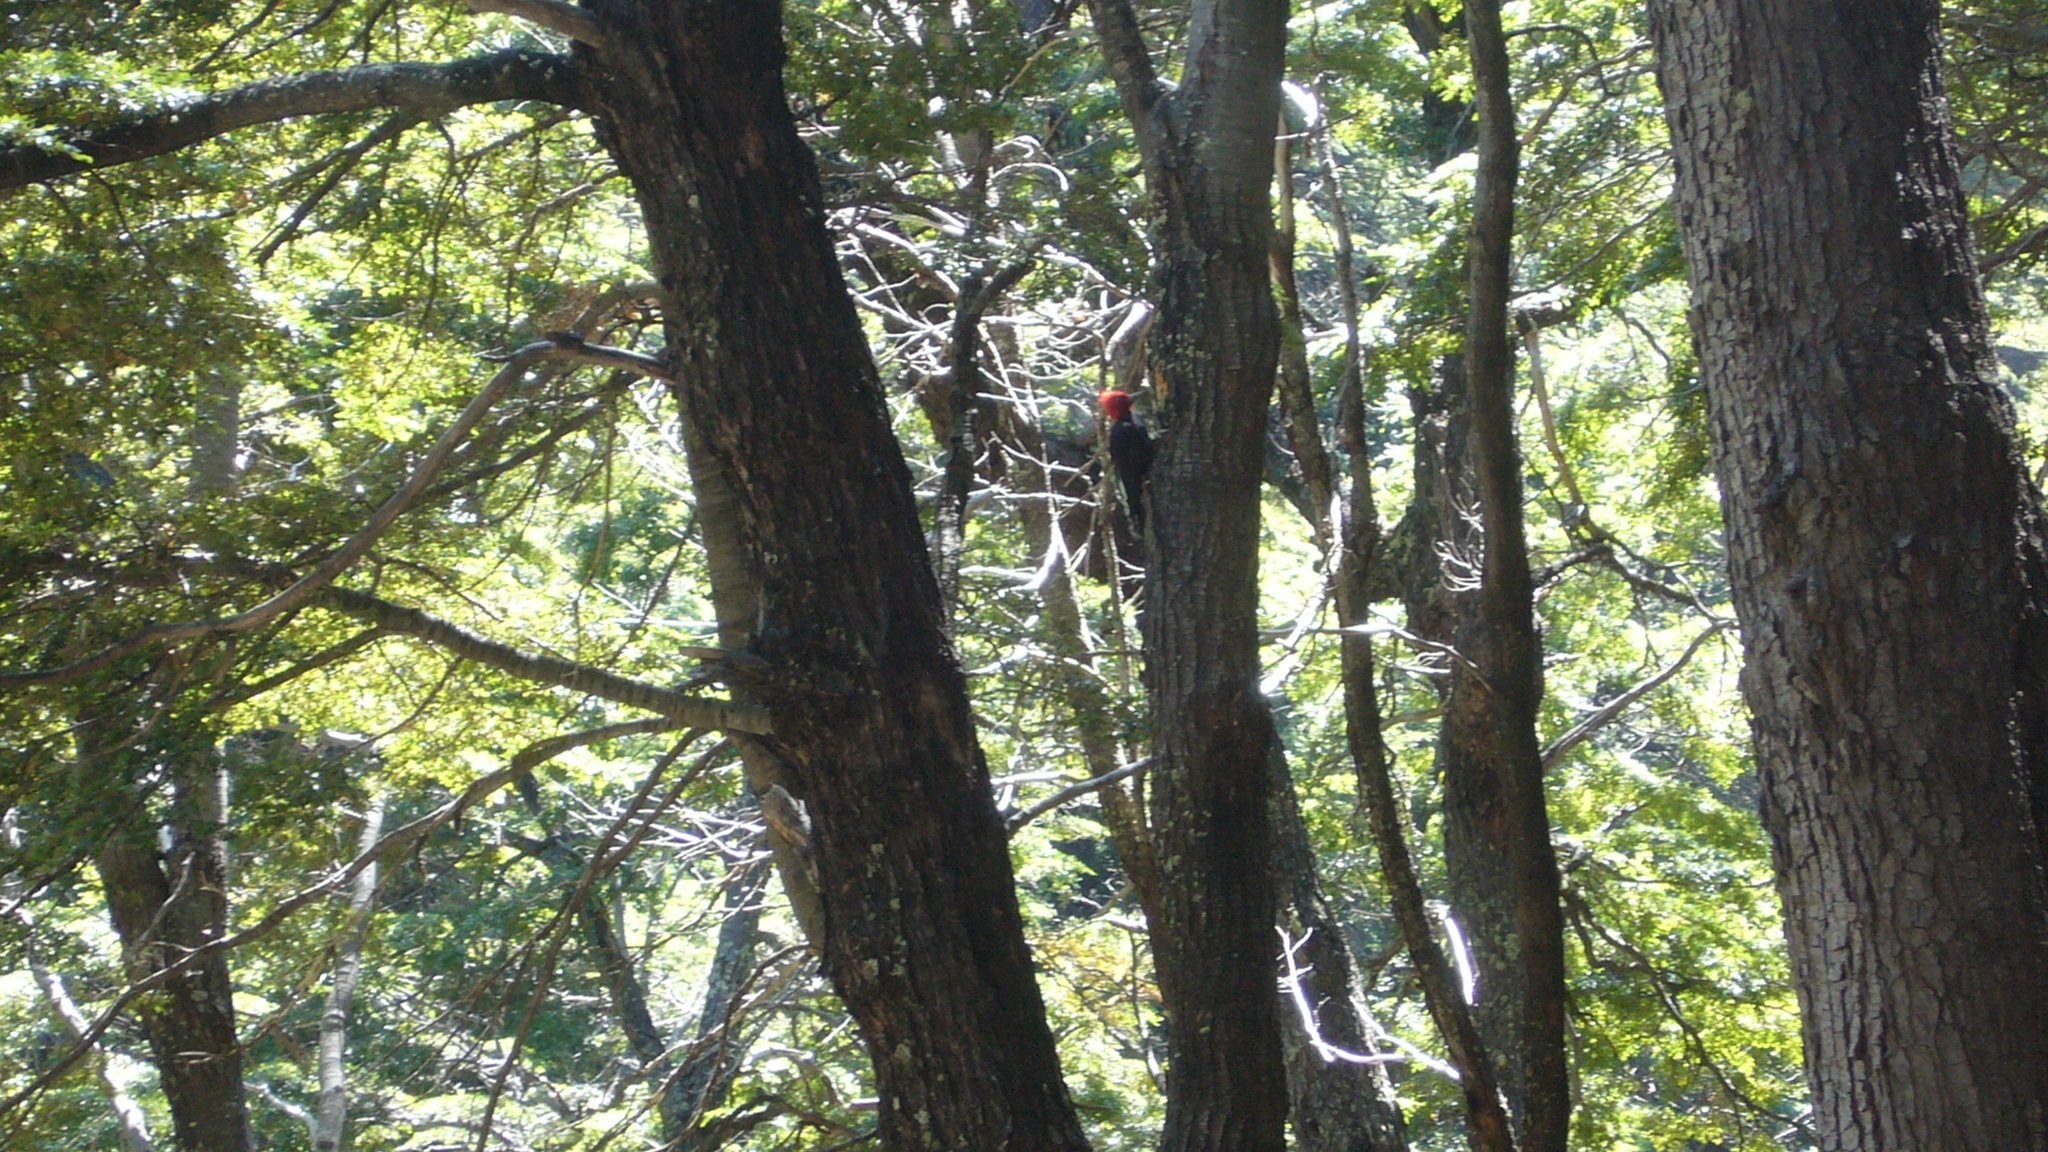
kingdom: Animalia
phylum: Chordata
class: Aves
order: Piciformes
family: Picidae
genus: Campephilus
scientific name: Campephilus magellanicus
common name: Magellanic woodpecker
